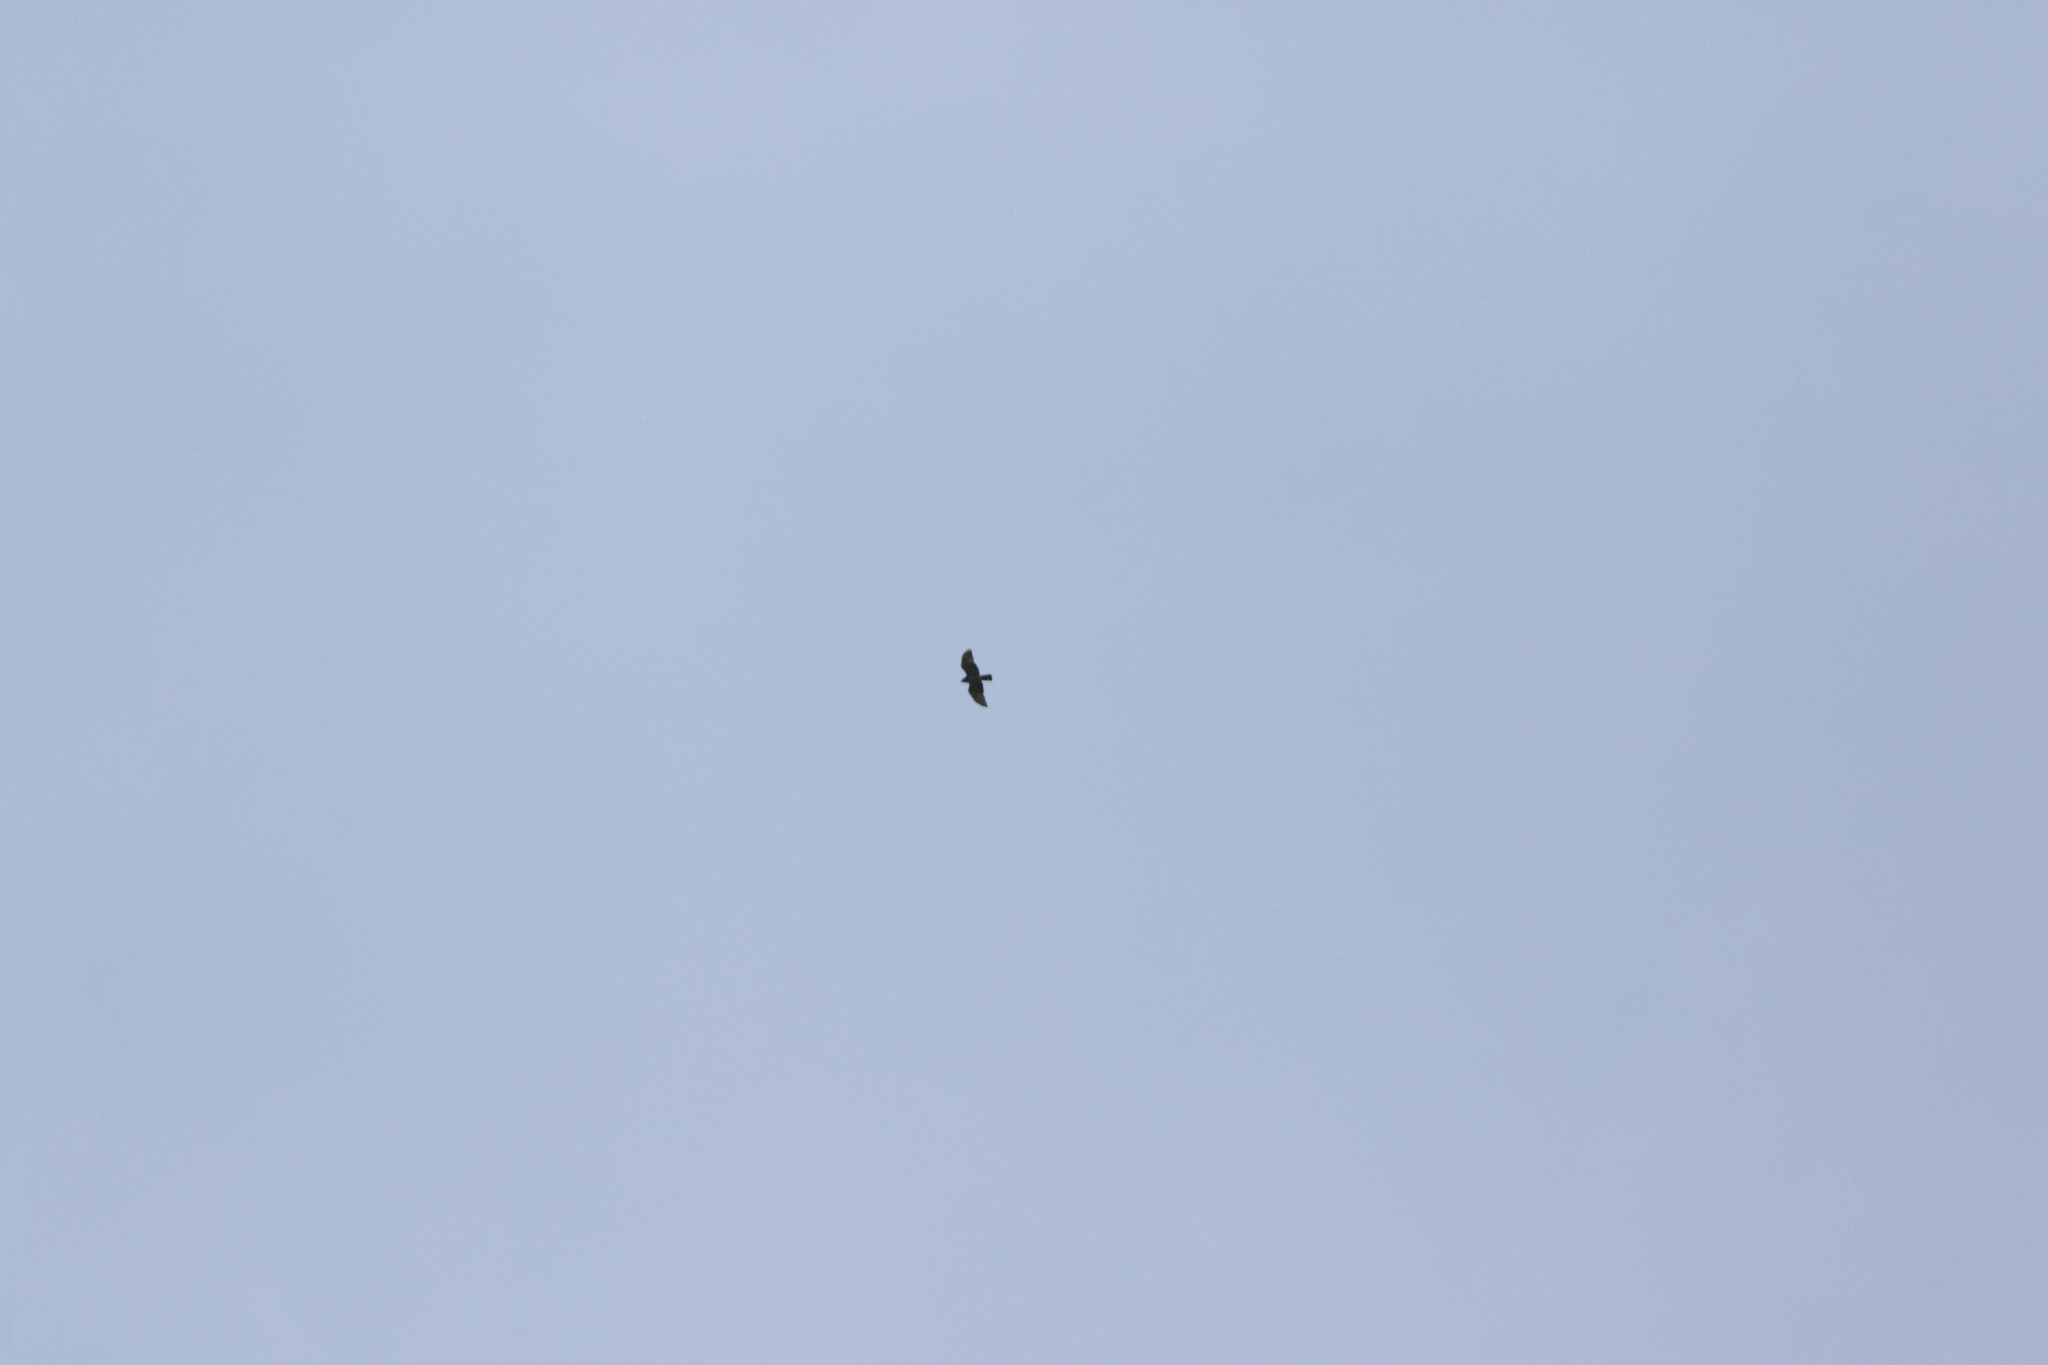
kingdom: Animalia
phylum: Chordata
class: Aves
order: Accipitriformes
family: Accipitridae
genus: Buteo
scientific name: Buteo platypterus
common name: Broad-winged hawk
